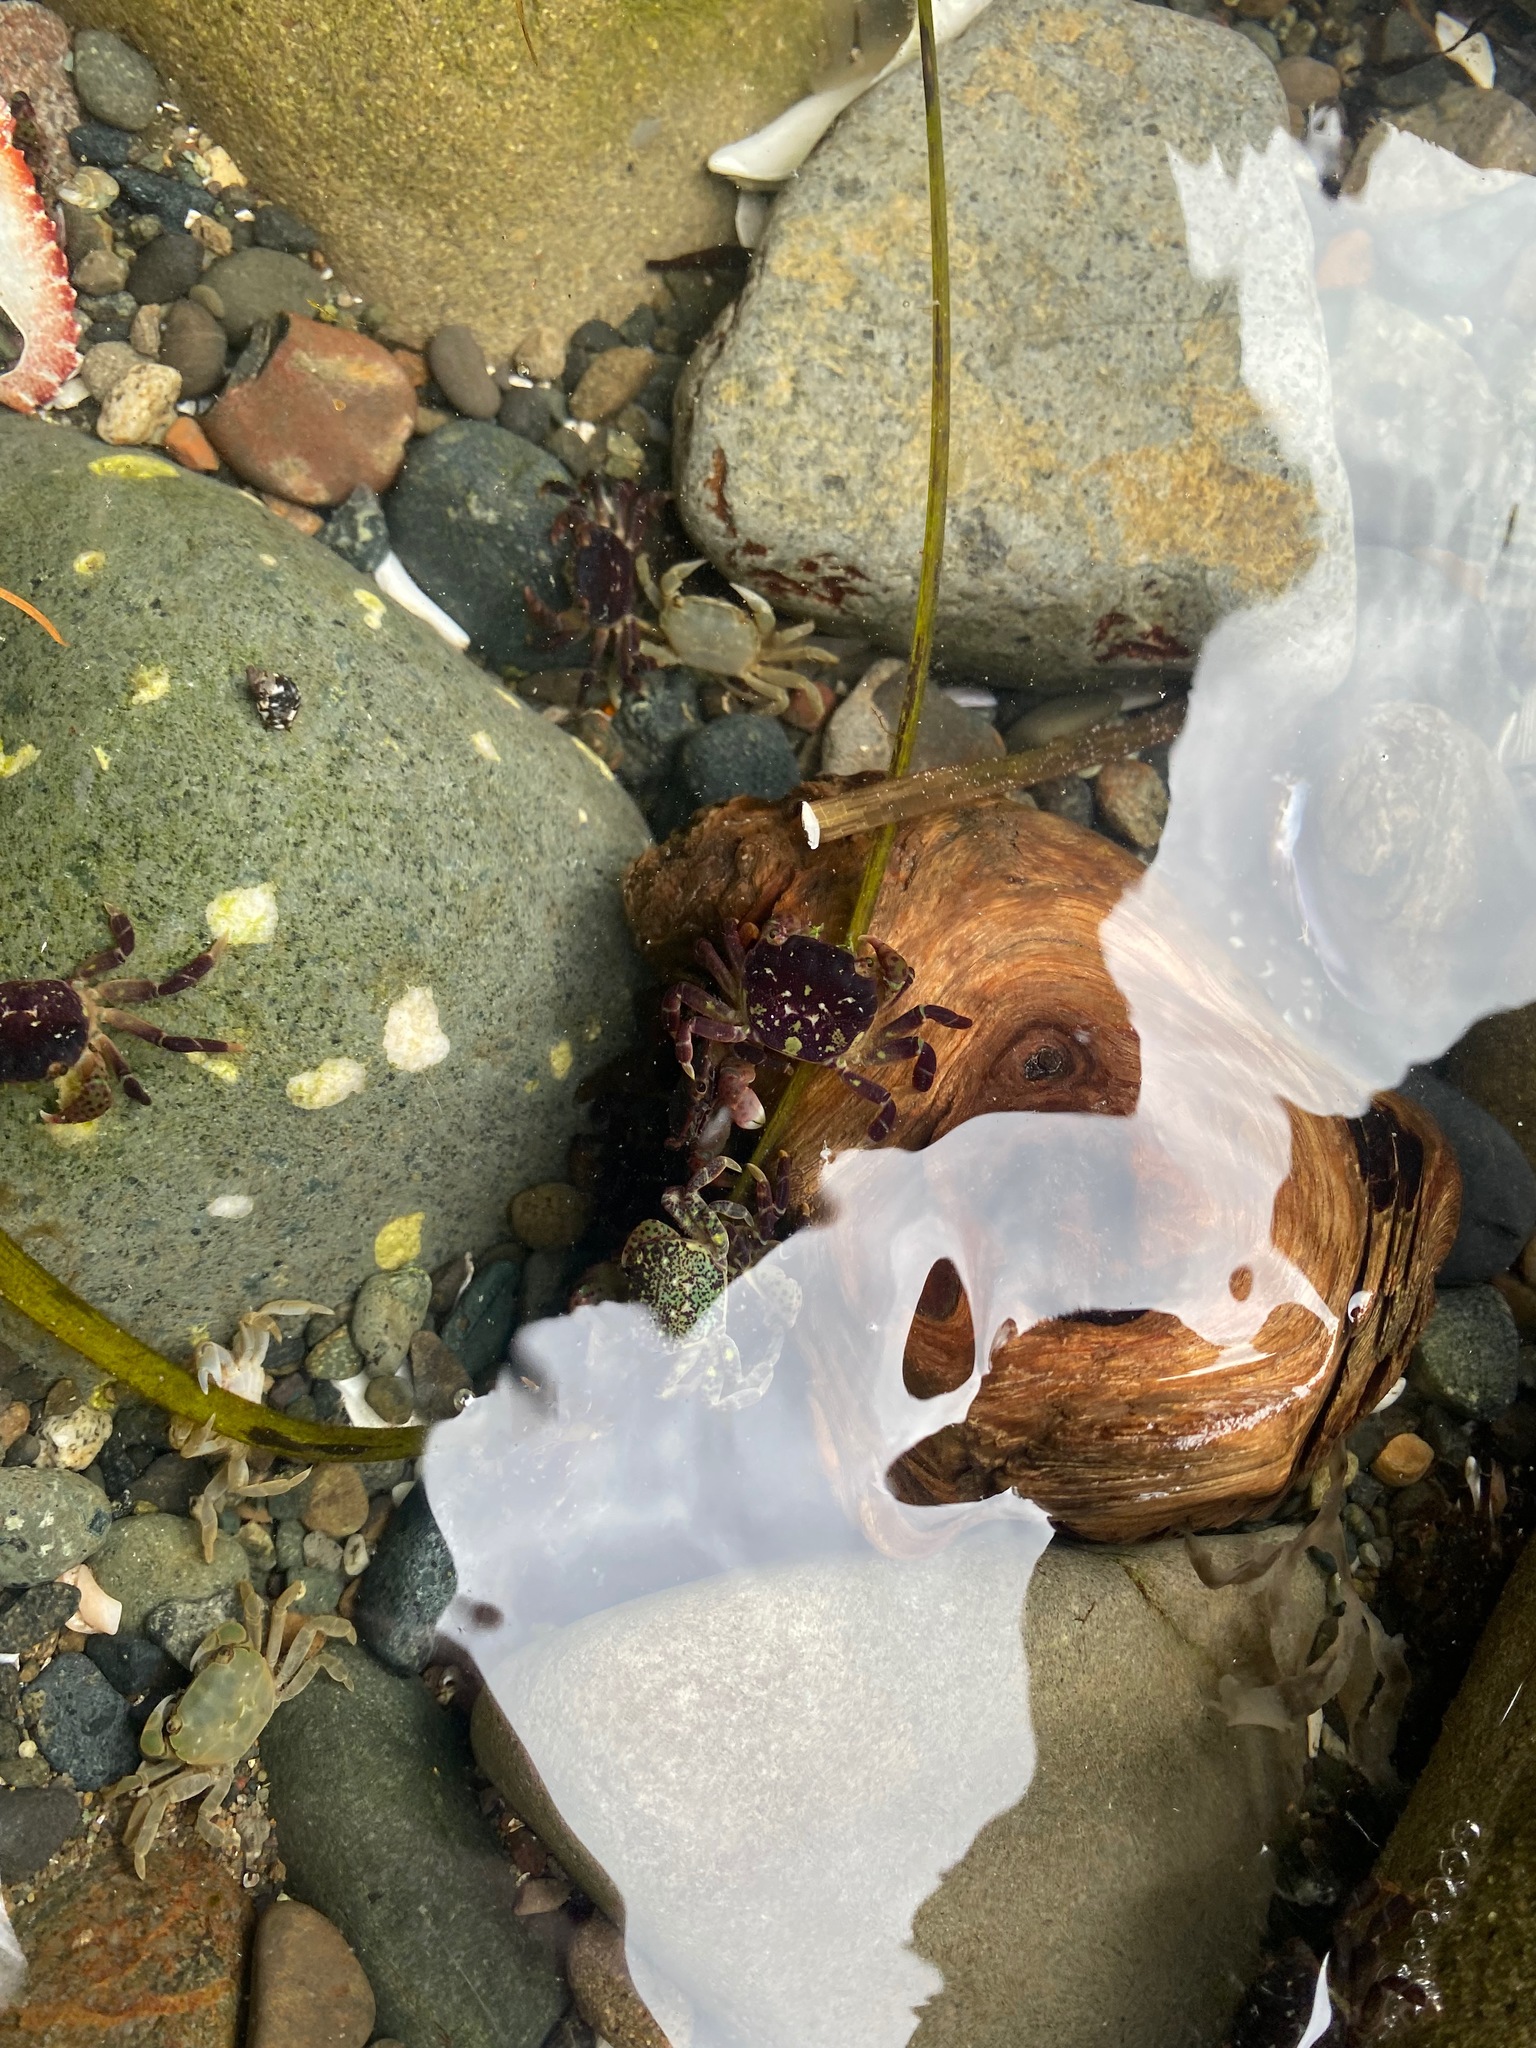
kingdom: Animalia
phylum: Arthropoda
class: Malacostraca
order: Decapoda
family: Varunidae
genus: Hemigrapsus
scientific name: Hemigrapsus nudus
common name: Purple shore crab
